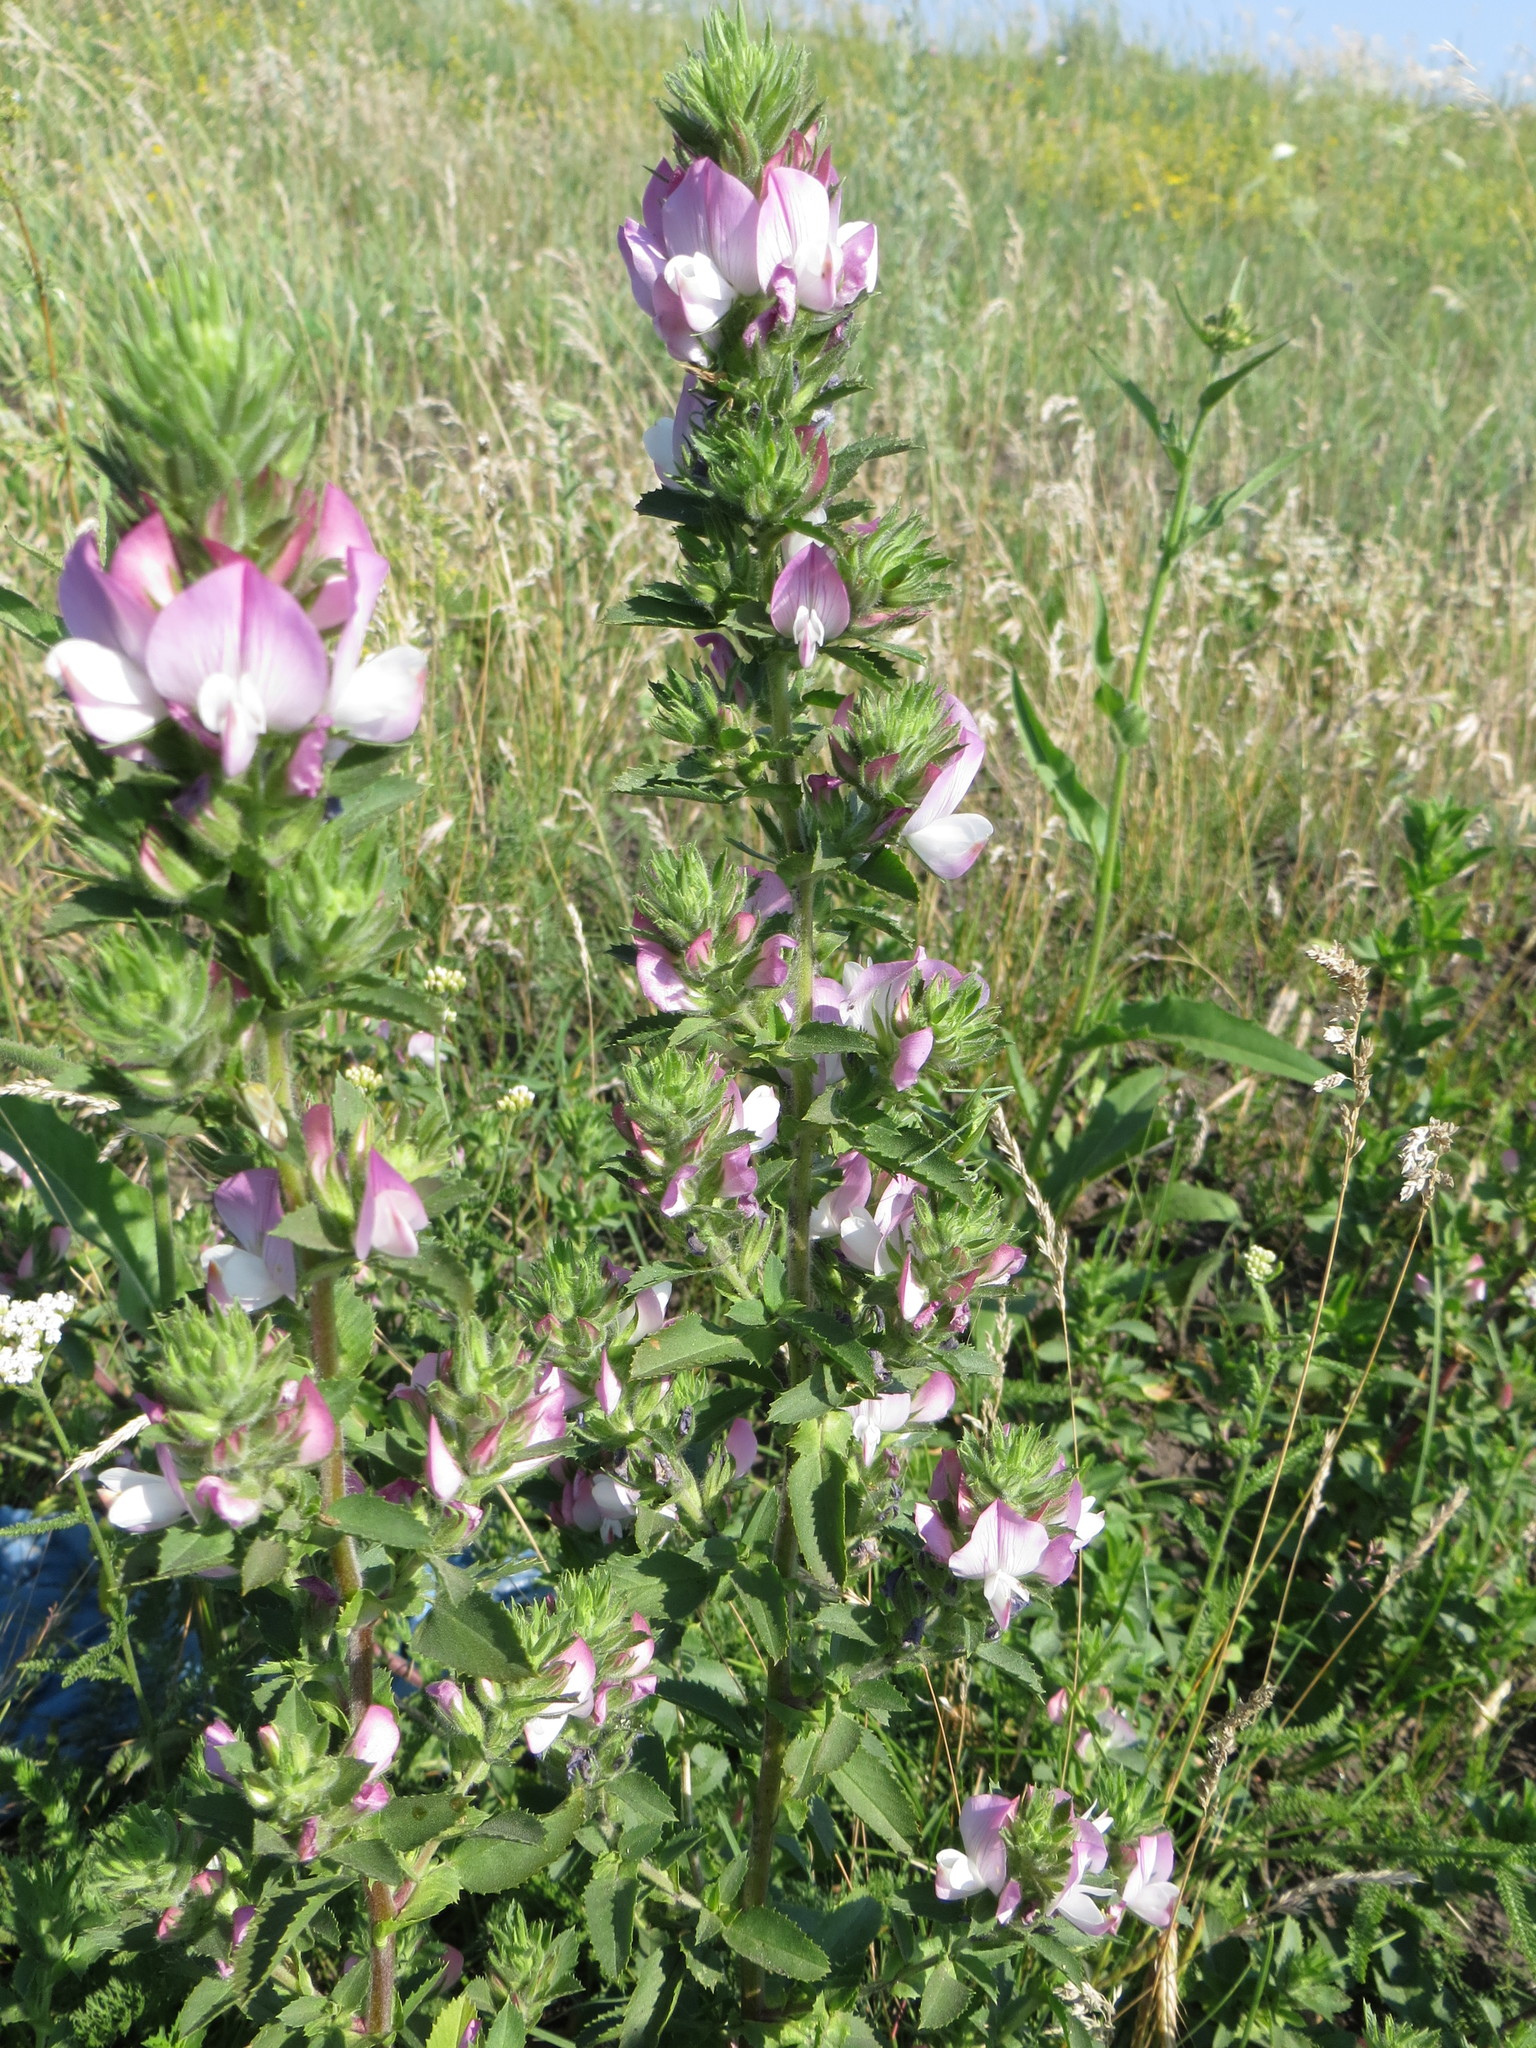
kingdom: Plantae
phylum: Tracheophyta
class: Magnoliopsida
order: Fabales
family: Fabaceae
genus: Ononis
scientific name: Ononis arvensis
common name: Field restharrow
